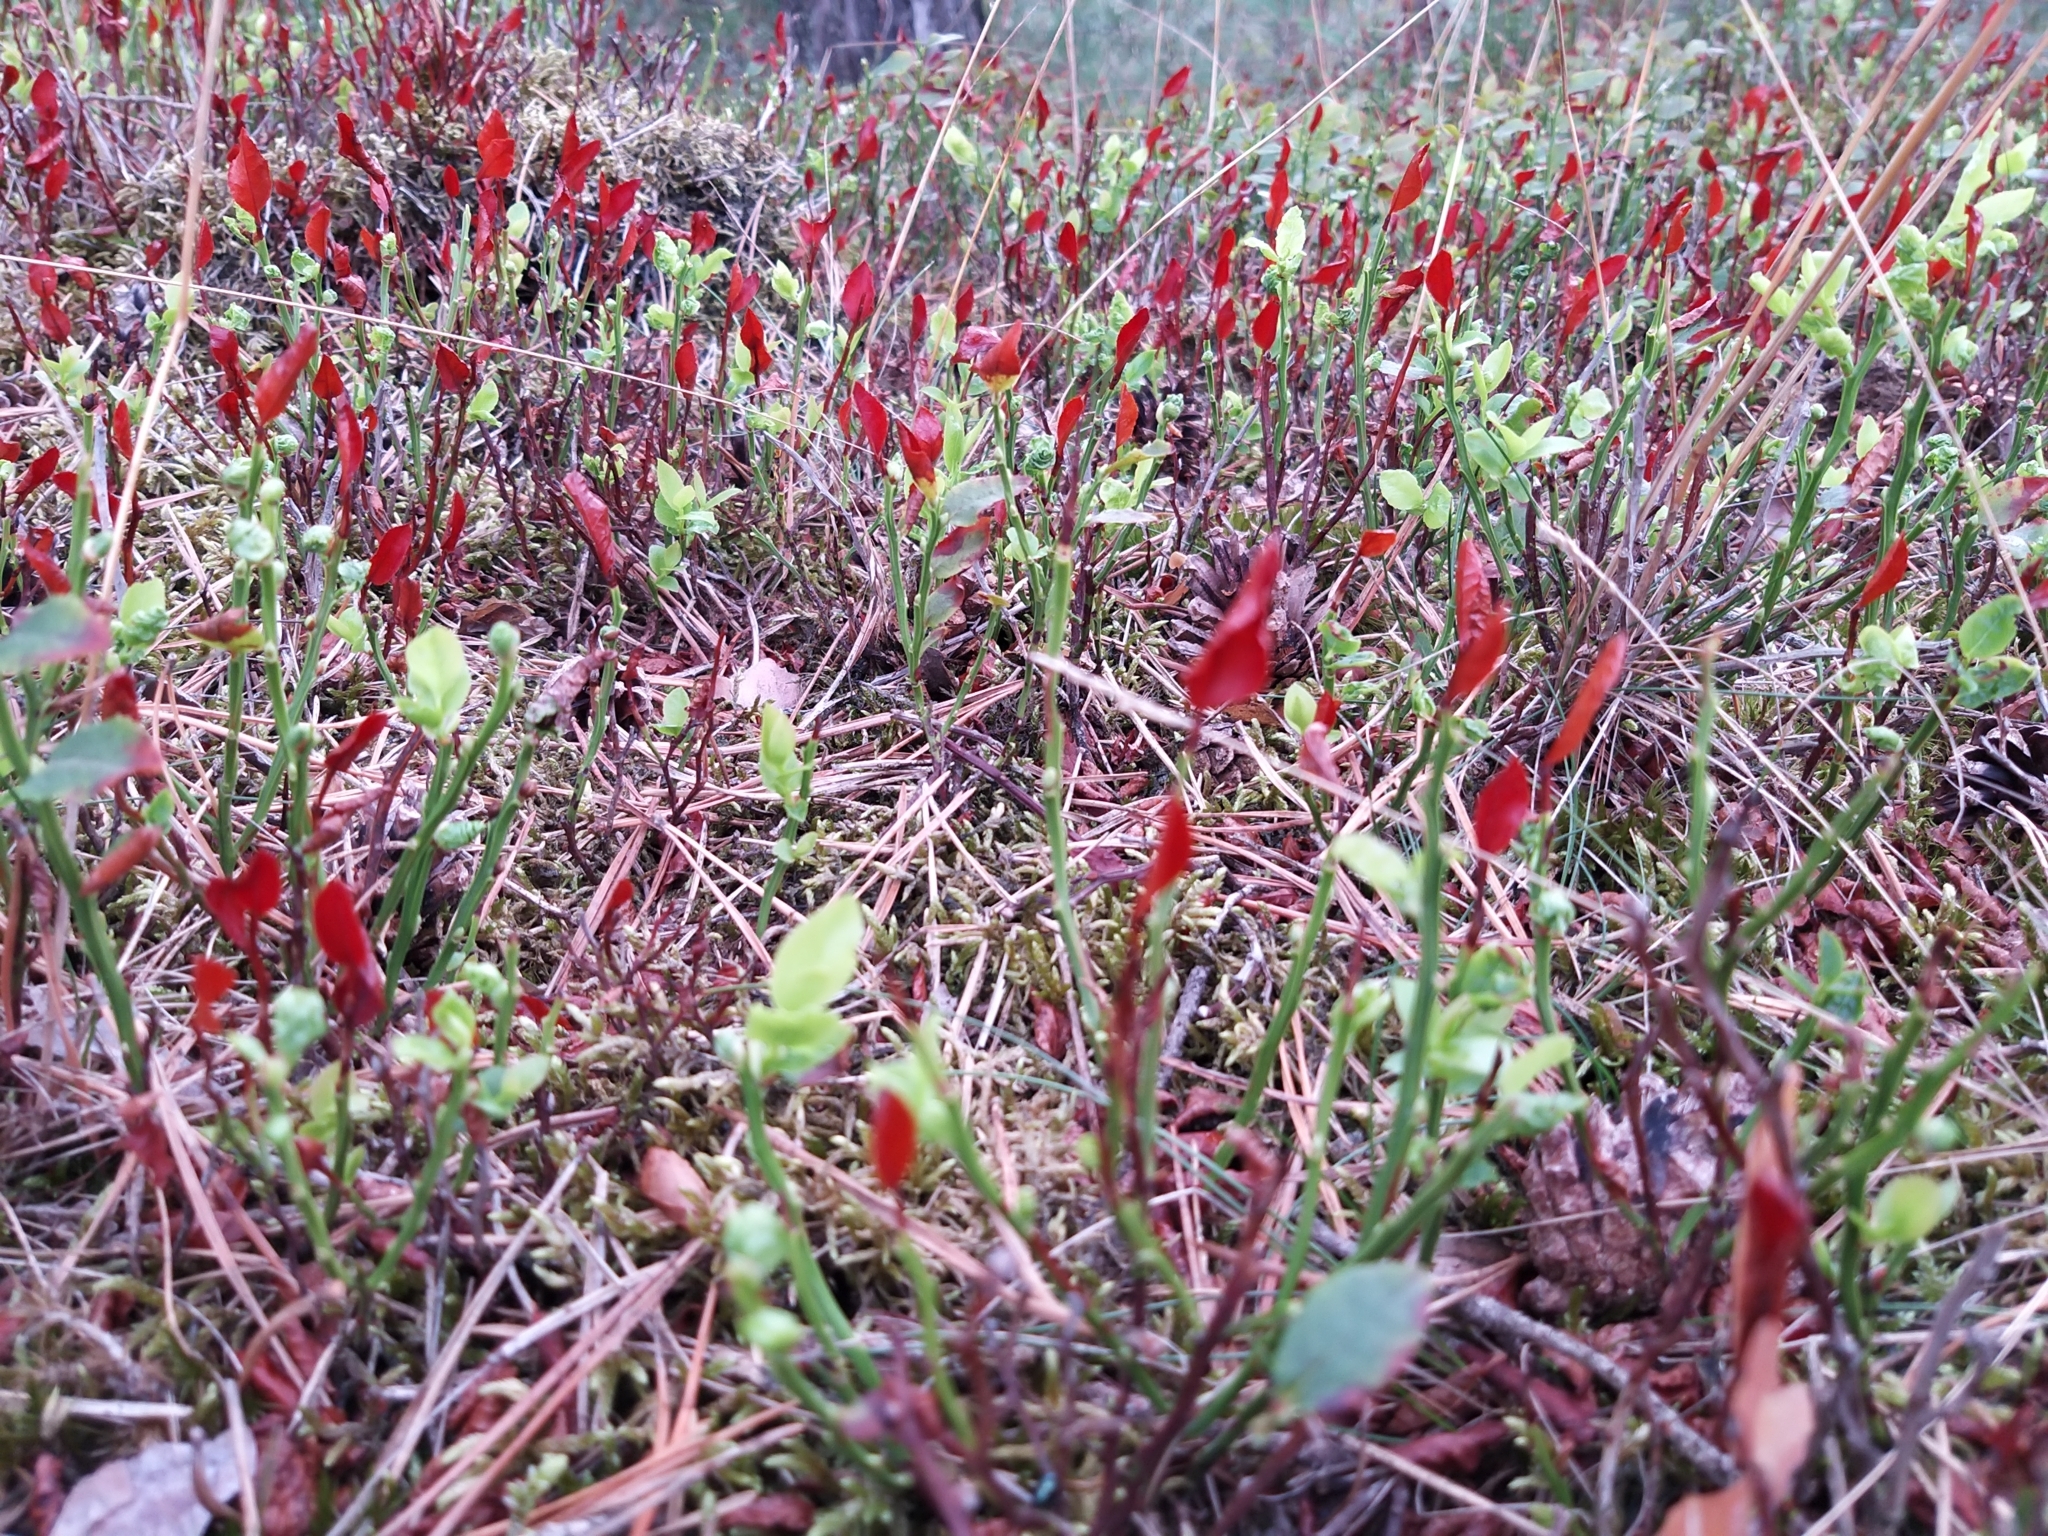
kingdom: Plantae
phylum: Tracheophyta
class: Magnoliopsida
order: Ericales
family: Ericaceae
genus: Vaccinium
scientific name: Vaccinium myrtillus
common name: Bilberry
